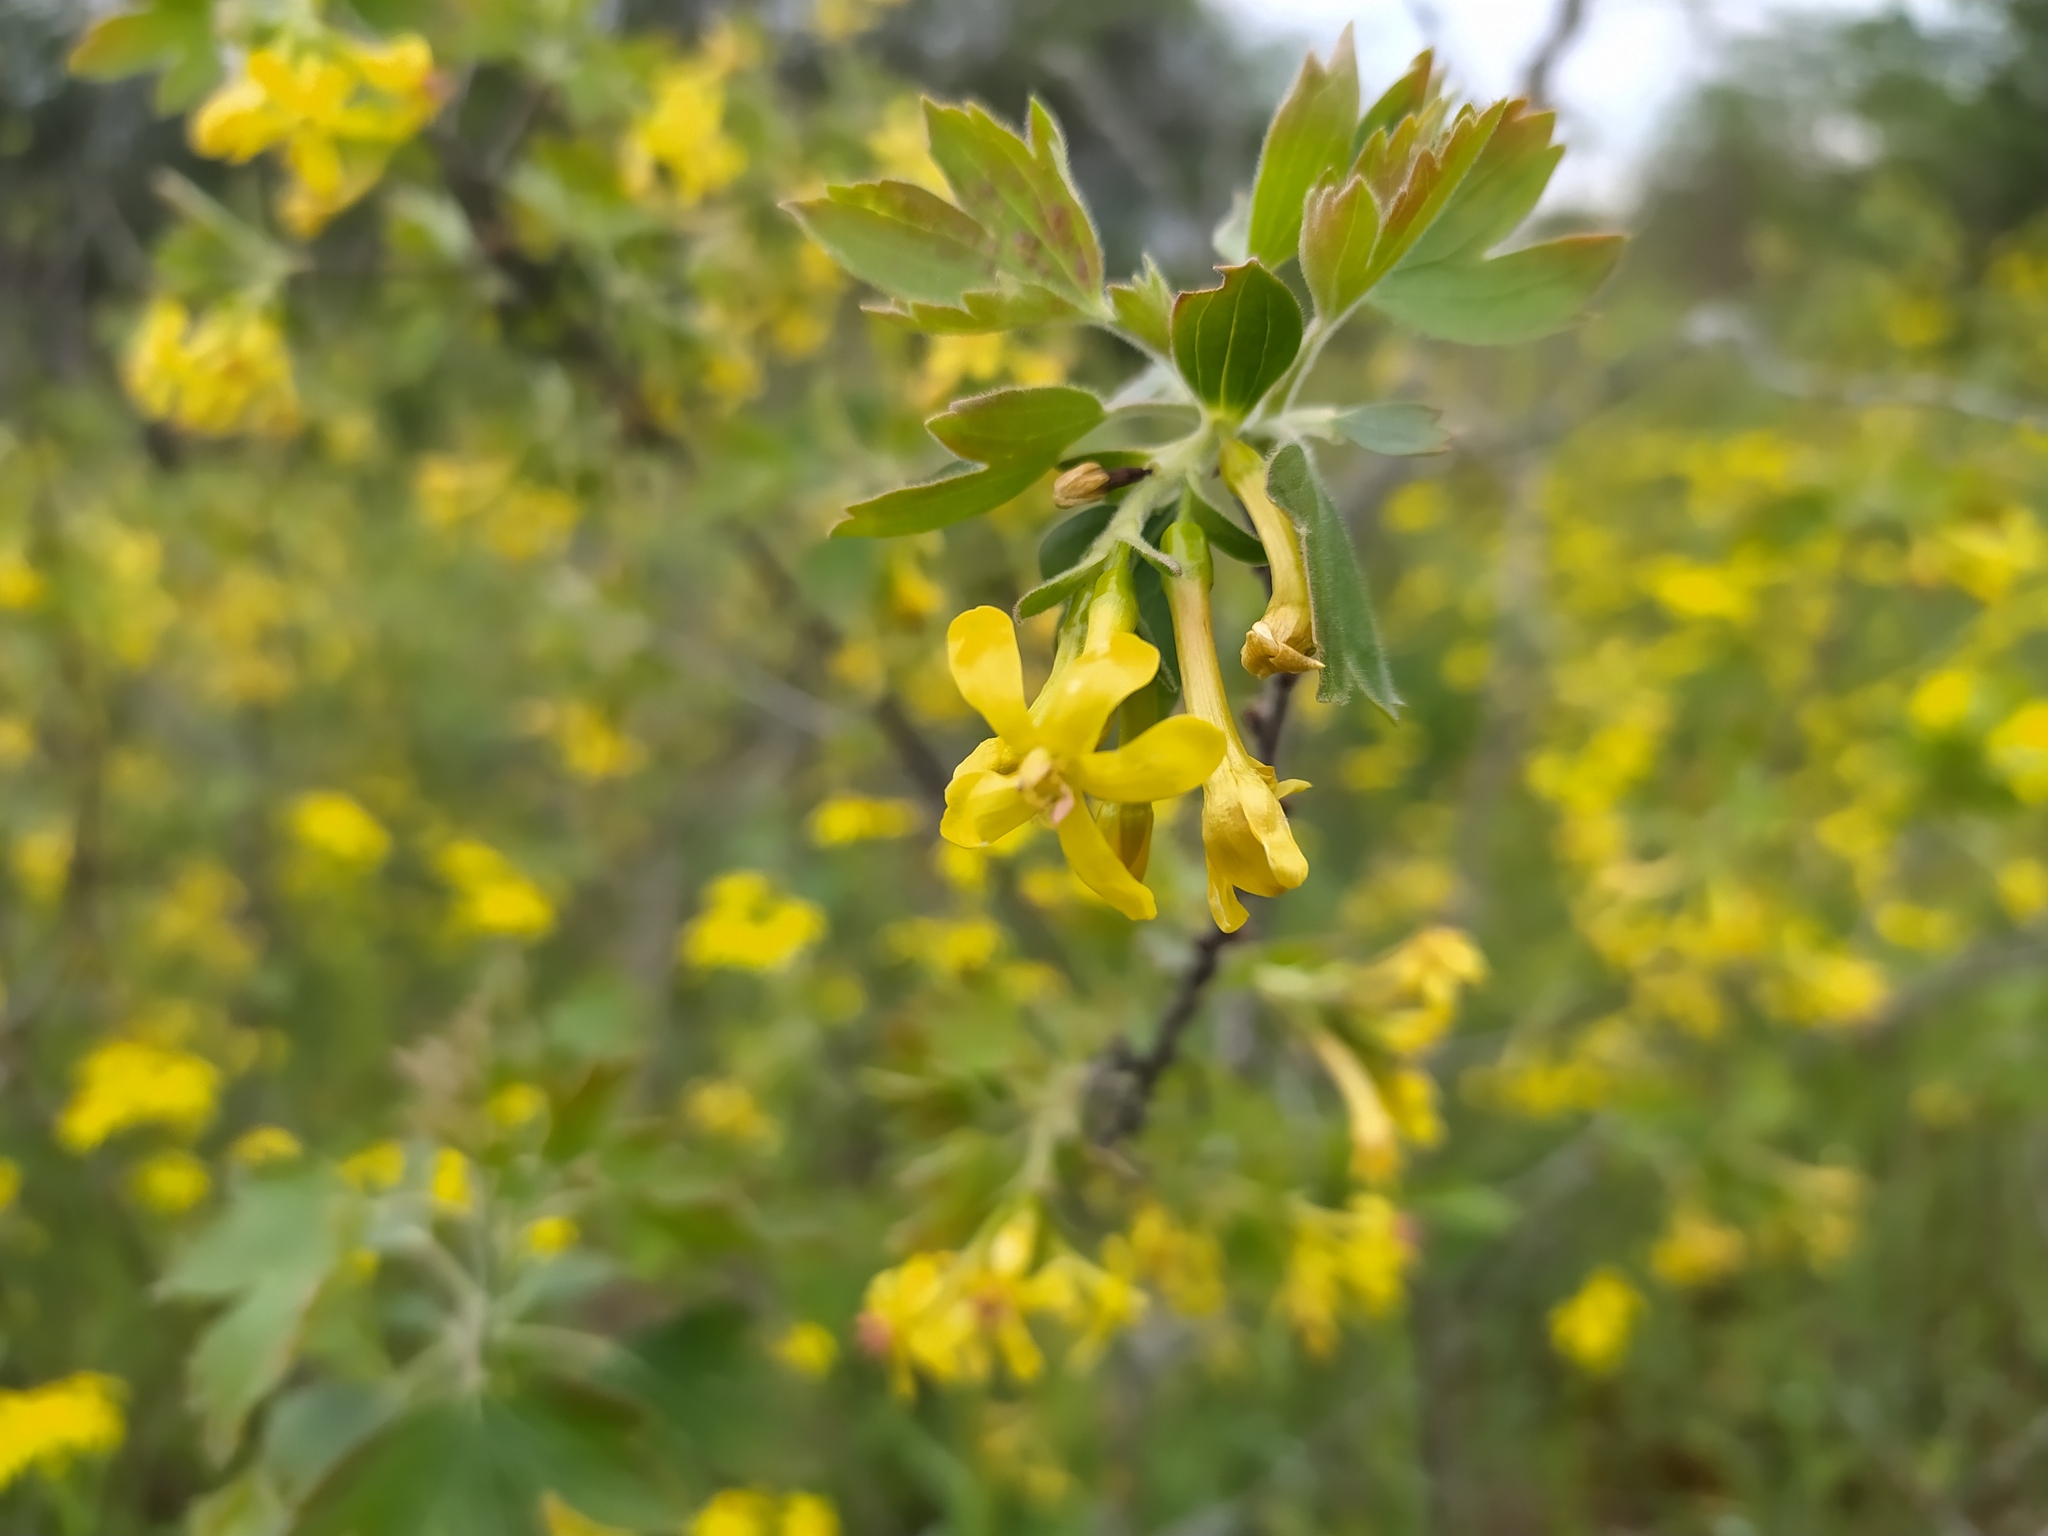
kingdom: Plantae
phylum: Tracheophyta
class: Magnoliopsida
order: Saxifragales
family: Grossulariaceae
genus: Ribes
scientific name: Ribes aureum
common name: Golden currant
